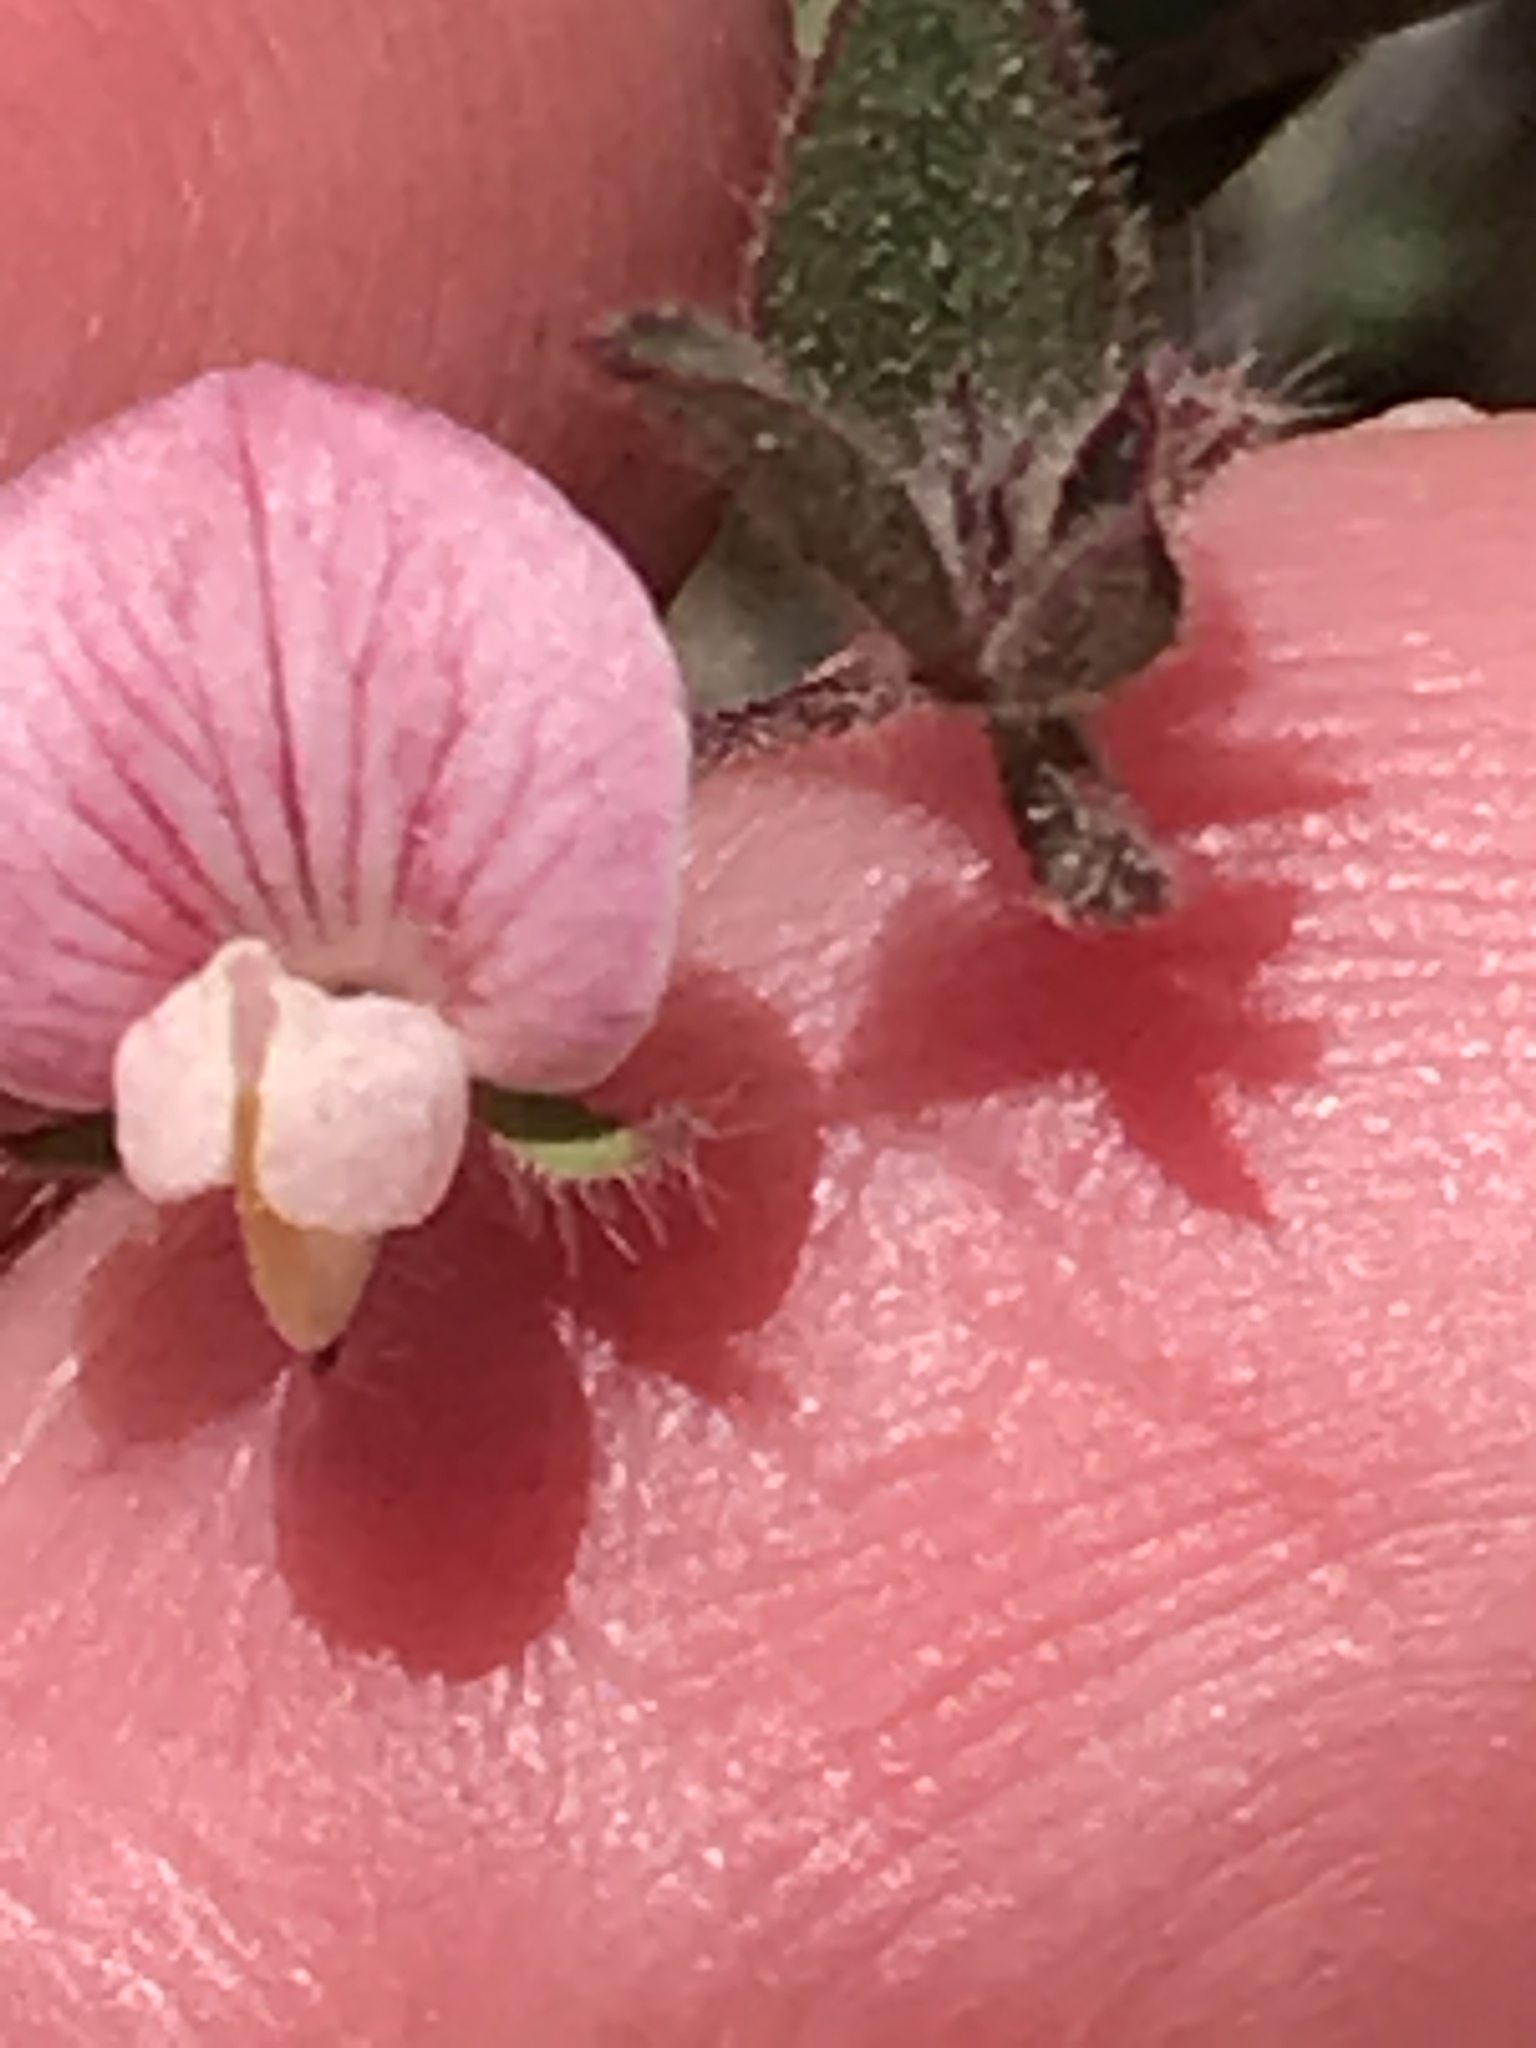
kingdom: Plantae
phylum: Tracheophyta
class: Magnoliopsida
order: Fabales
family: Fabaceae
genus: Acmispon
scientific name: Acmispon americanus
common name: American bird's-foot trefoil
